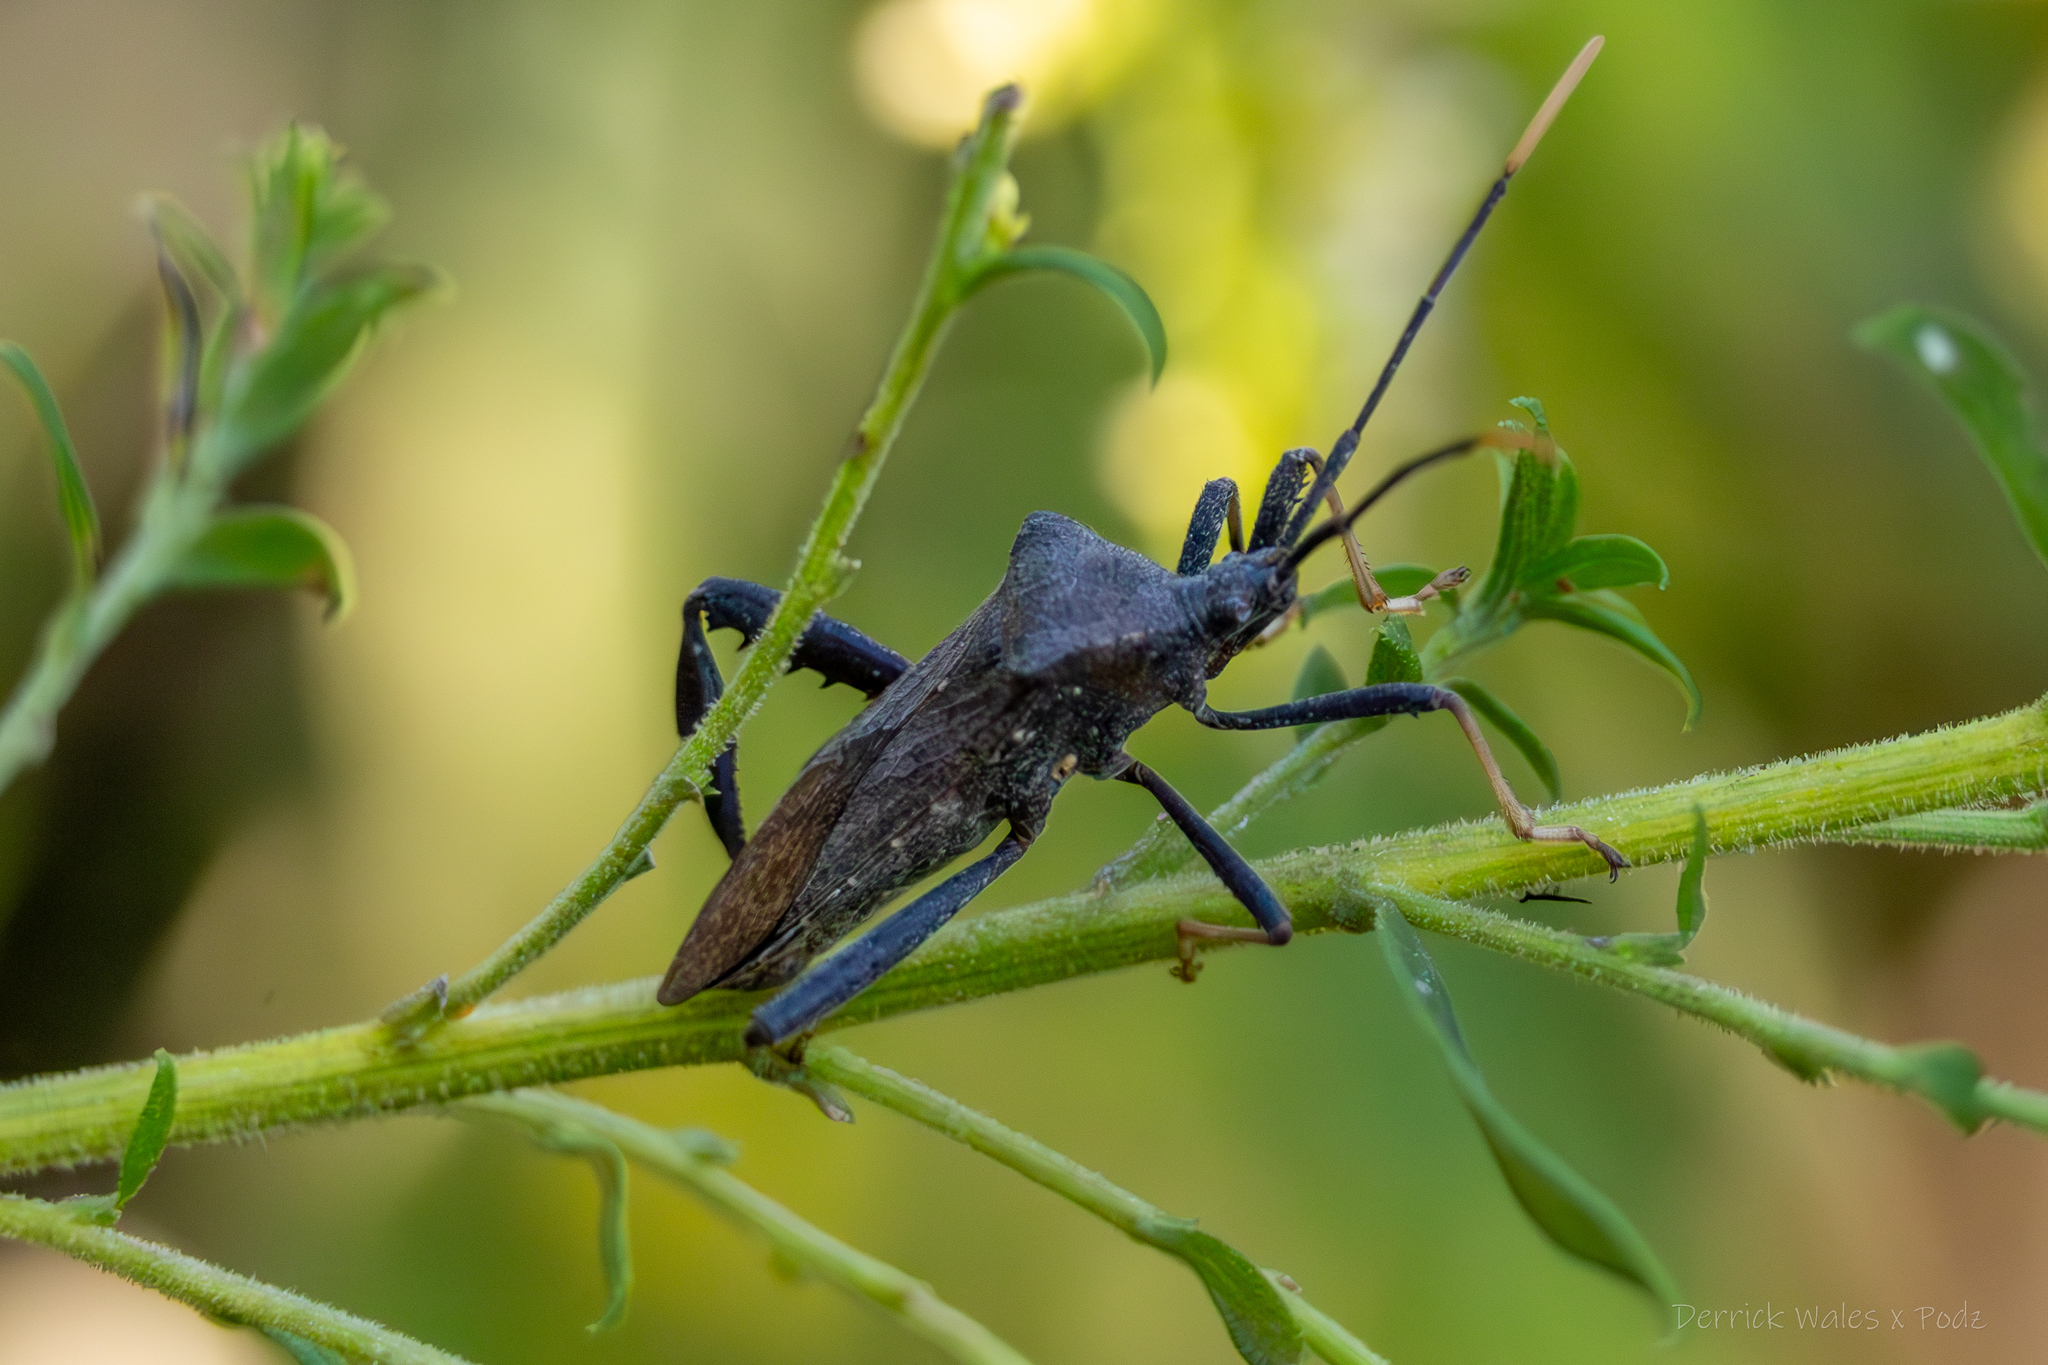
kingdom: Animalia
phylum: Arthropoda
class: Insecta
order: Hemiptera
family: Coreidae
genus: Acanthocephala
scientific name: Acanthocephala terminalis
